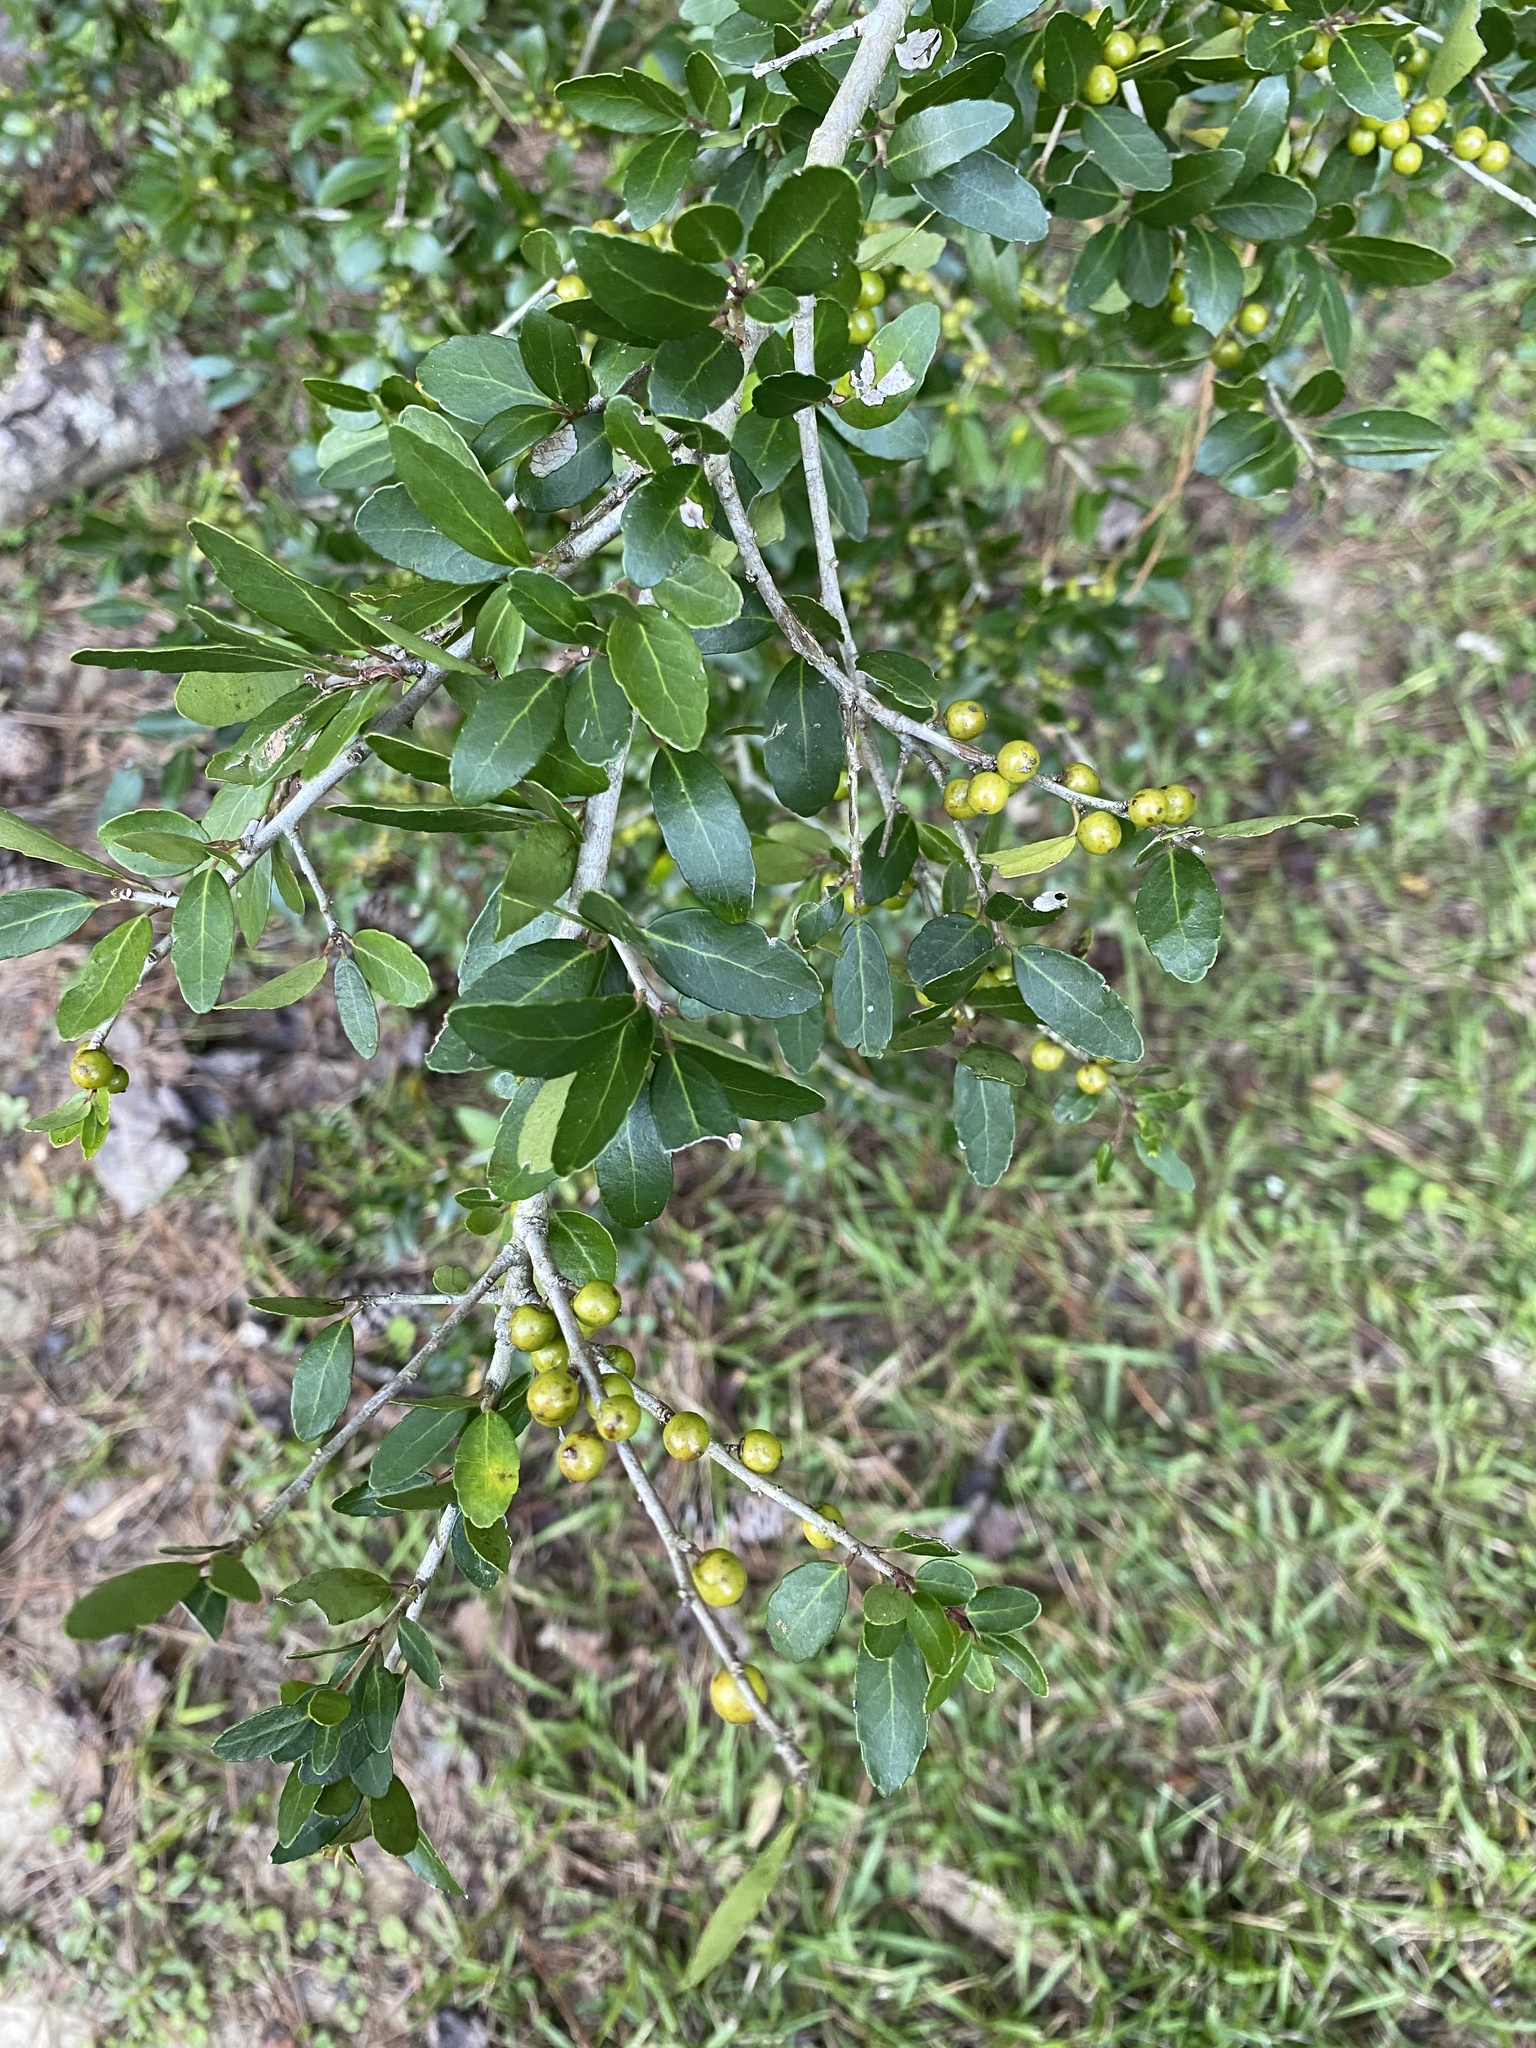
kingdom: Plantae
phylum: Tracheophyta
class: Magnoliopsida
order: Aquifoliales
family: Aquifoliaceae
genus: Ilex
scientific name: Ilex vomitoria
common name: Yaupon holly
